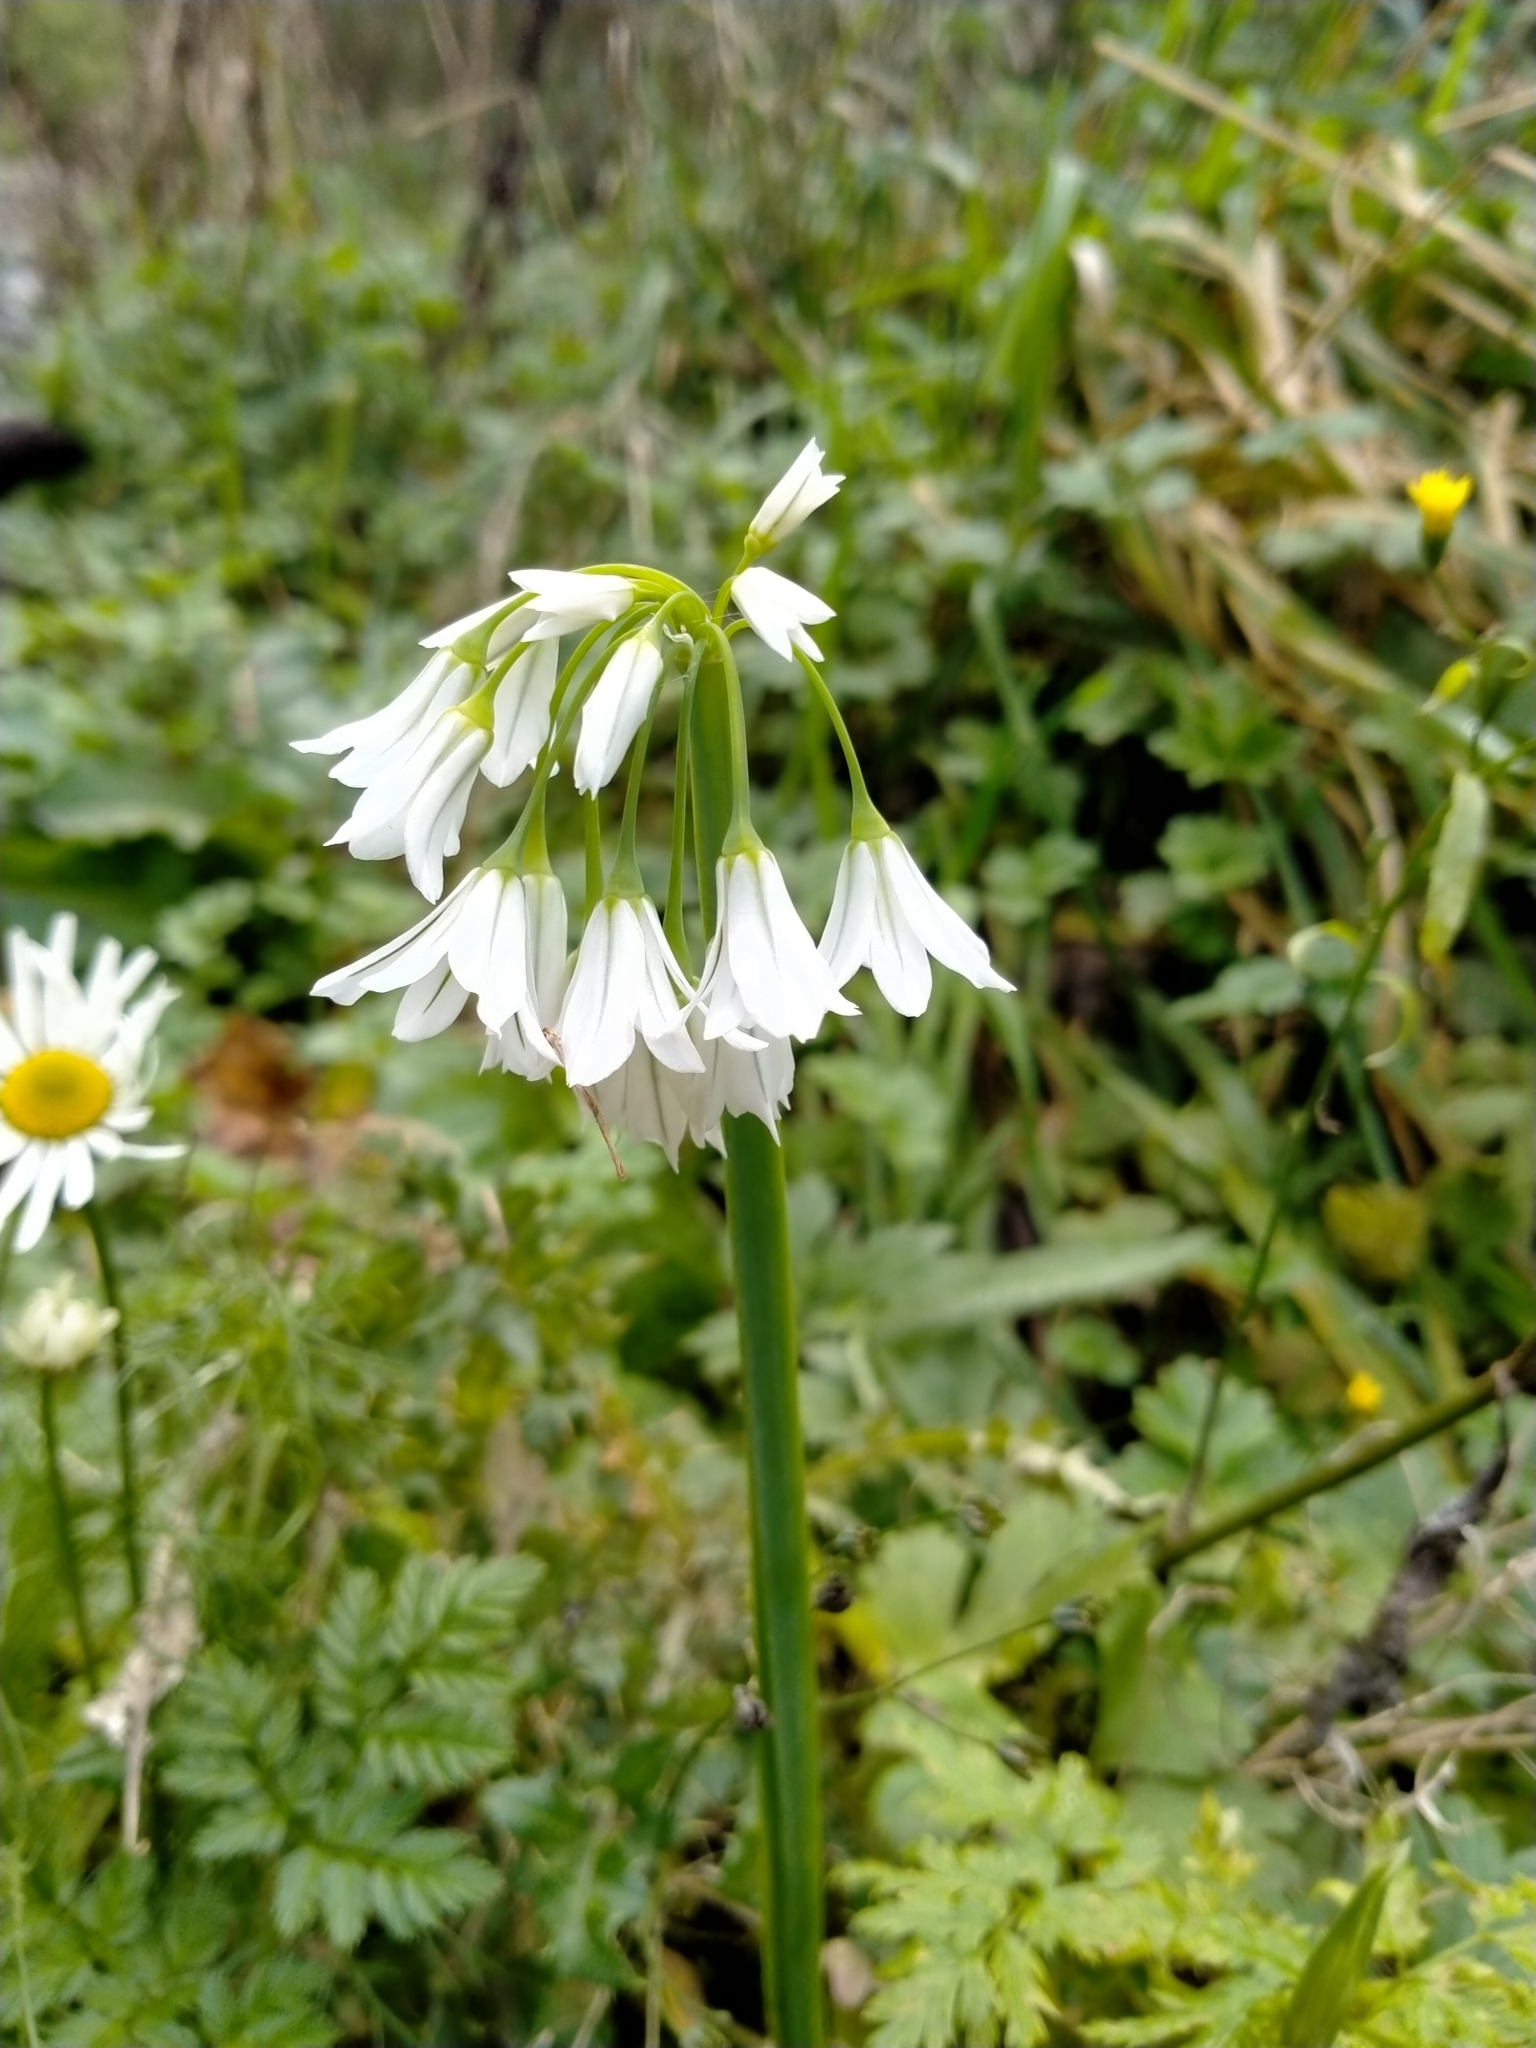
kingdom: Plantae
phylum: Tracheophyta
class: Liliopsida
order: Asparagales
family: Amaryllidaceae
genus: Allium
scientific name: Allium triquetrum
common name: Three-cornered garlic
